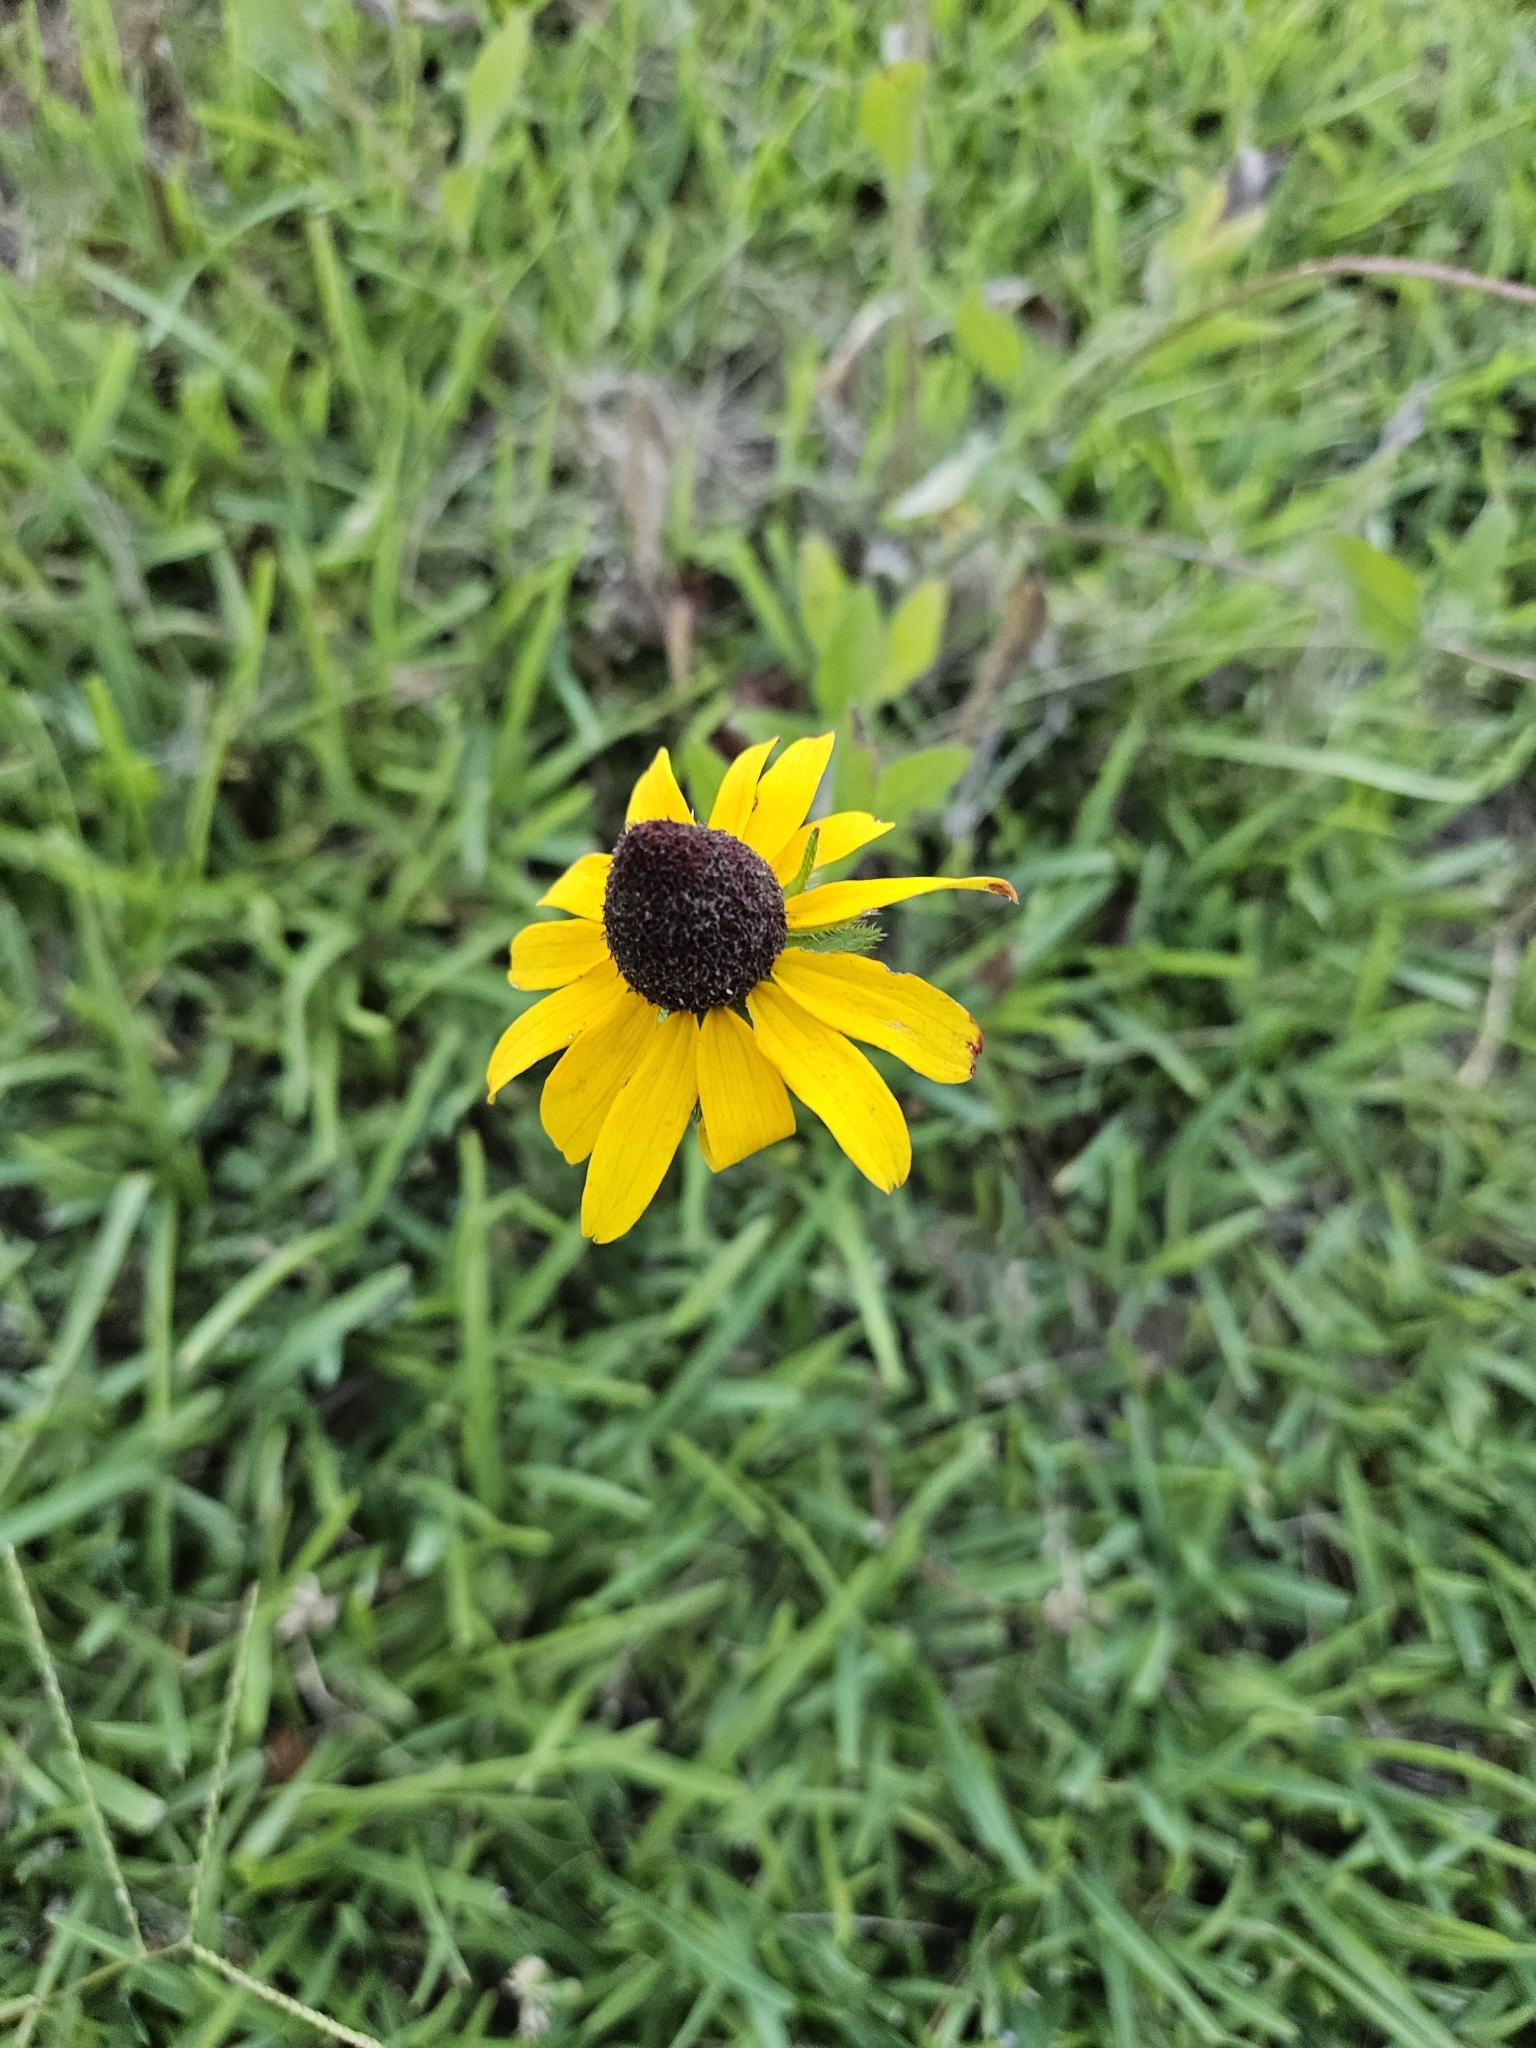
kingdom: Plantae
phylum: Tracheophyta
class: Magnoliopsida
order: Asterales
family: Asteraceae
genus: Rudbeckia
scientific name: Rudbeckia hirta
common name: Black-eyed-susan
